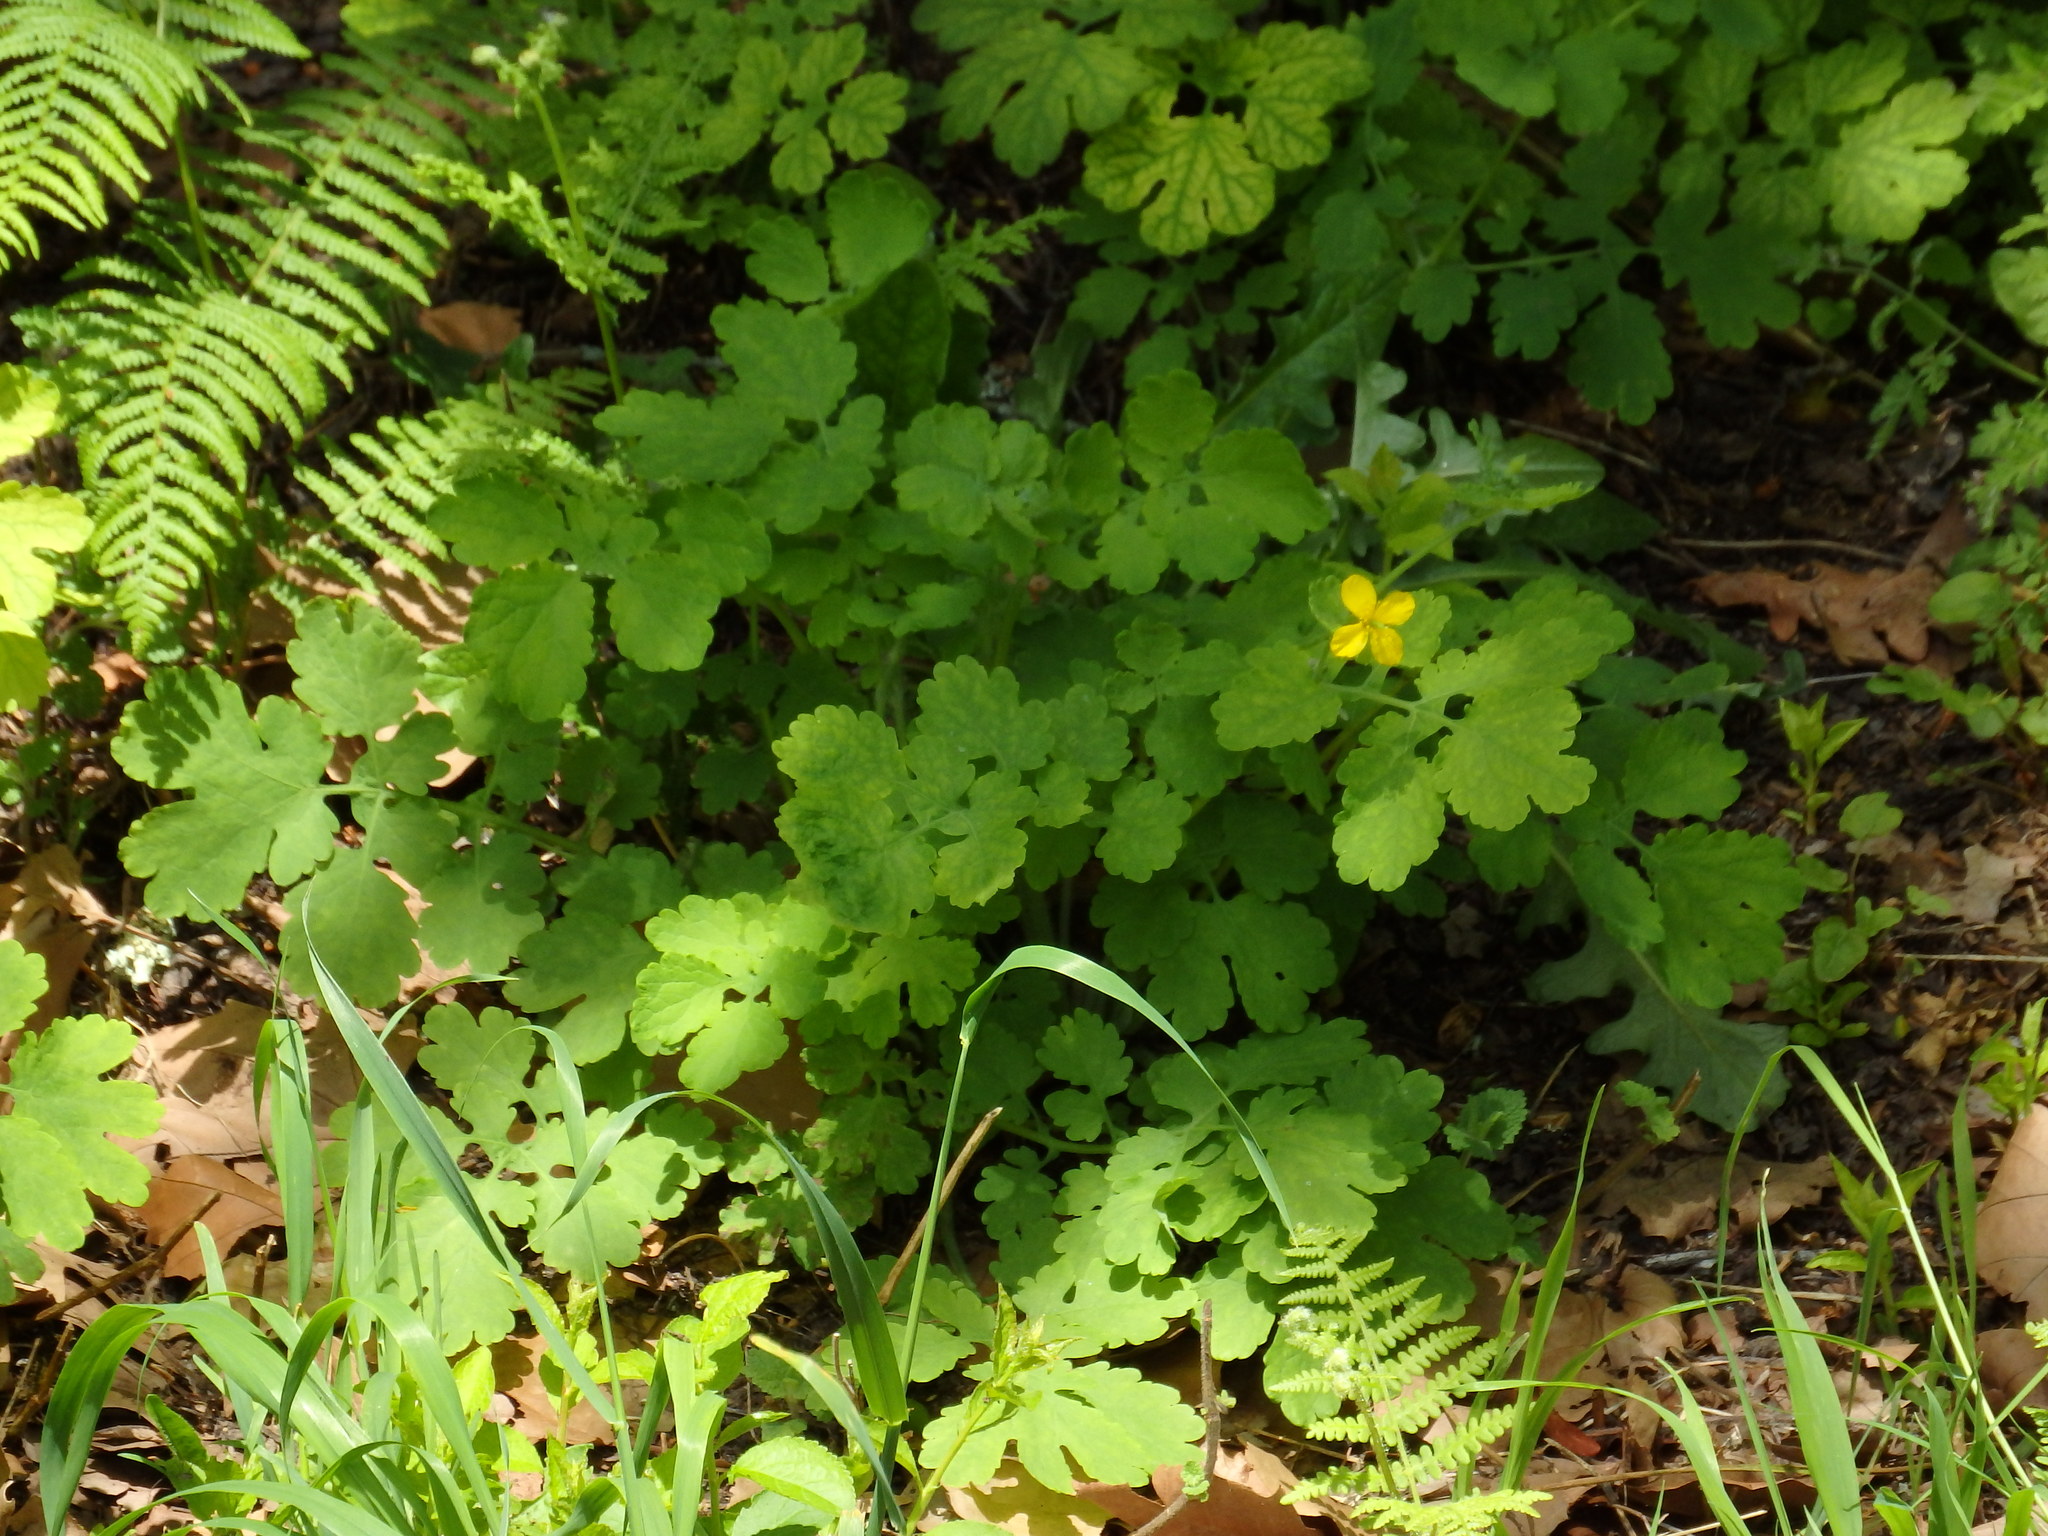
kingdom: Plantae
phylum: Tracheophyta
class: Magnoliopsida
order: Ranunculales
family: Papaveraceae
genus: Chelidonium
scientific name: Chelidonium majus
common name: Greater celandine
